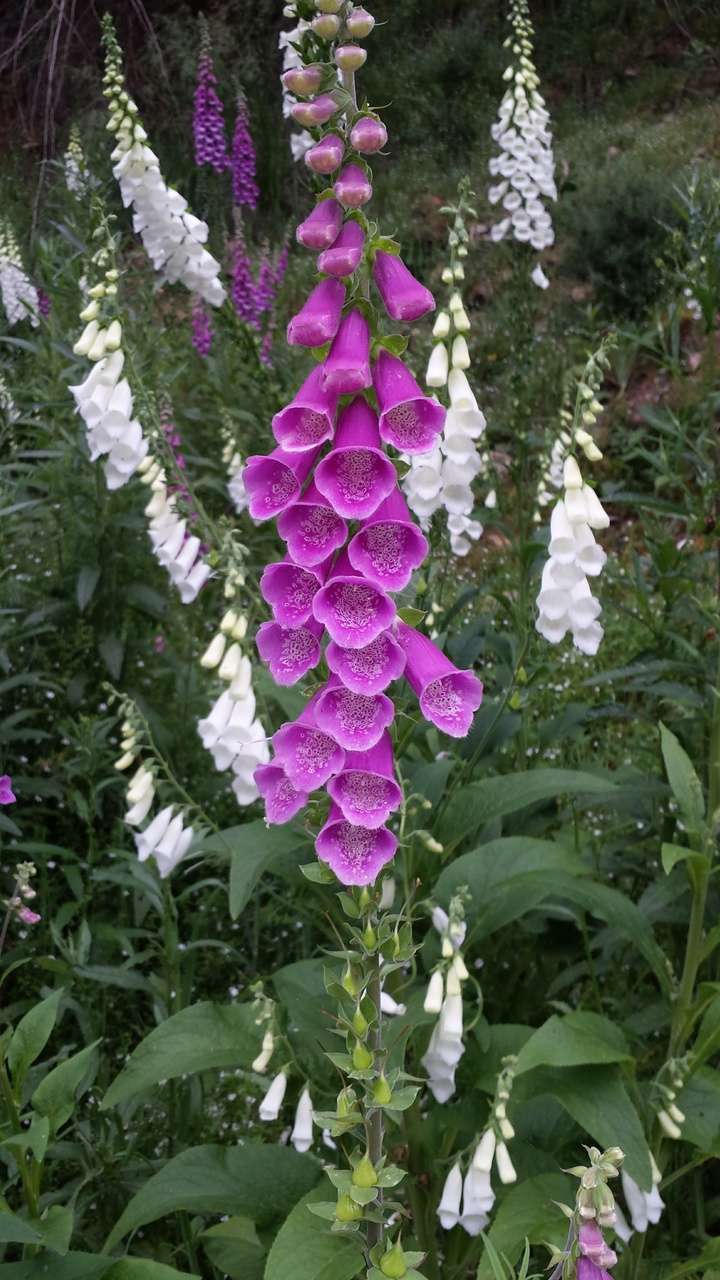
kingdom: Plantae
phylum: Tracheophyta
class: Magnoliopsida
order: Lamiales
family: Plantaginaceae
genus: Digitalis
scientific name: Digitalis purpurea
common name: Foxglove
